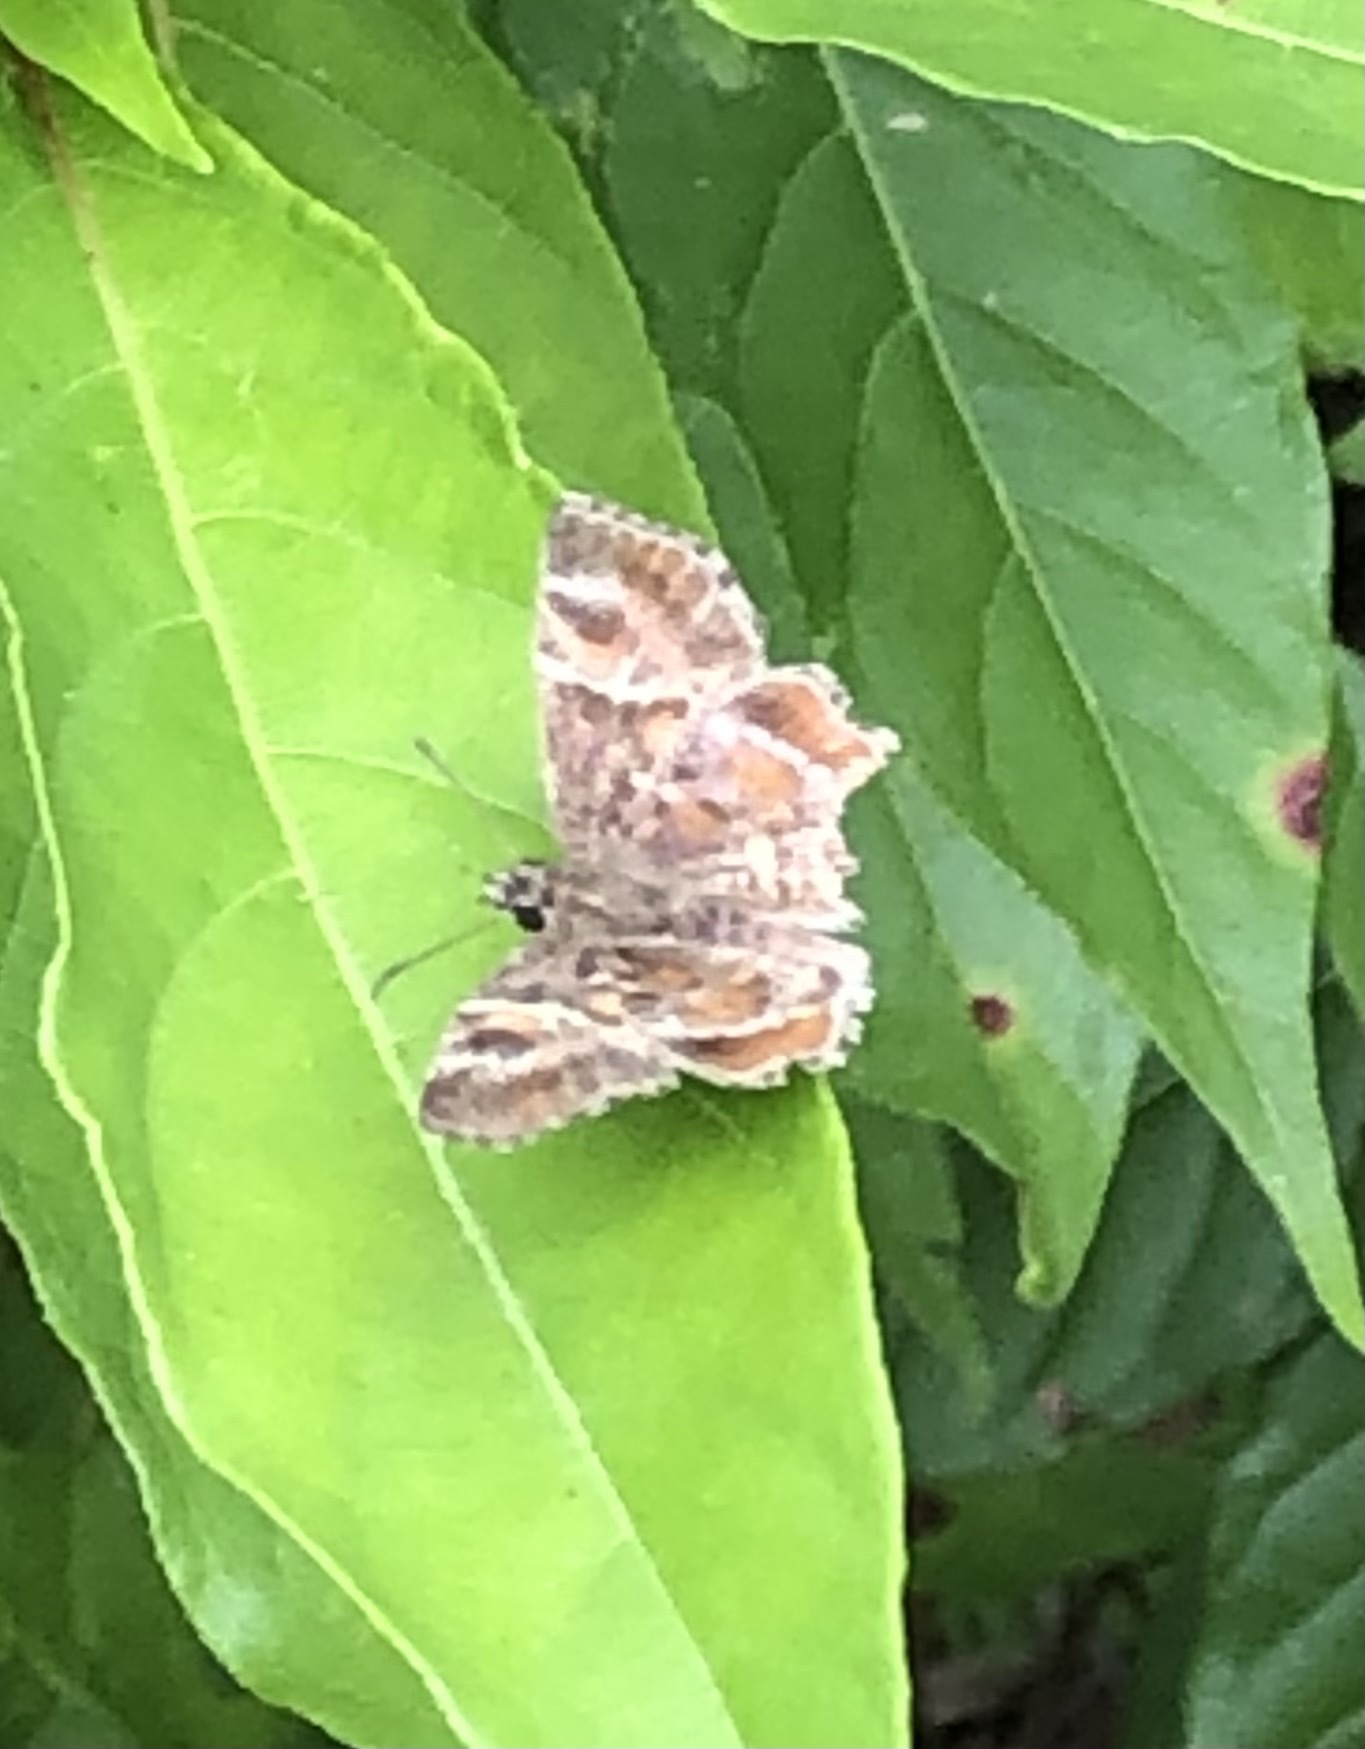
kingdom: Animalia
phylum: Arthropoda
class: Insecta
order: Lepidoptera
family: Hesperiidae
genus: Systasea
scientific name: Systasea pulverulenta
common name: Texas powdered skipper
